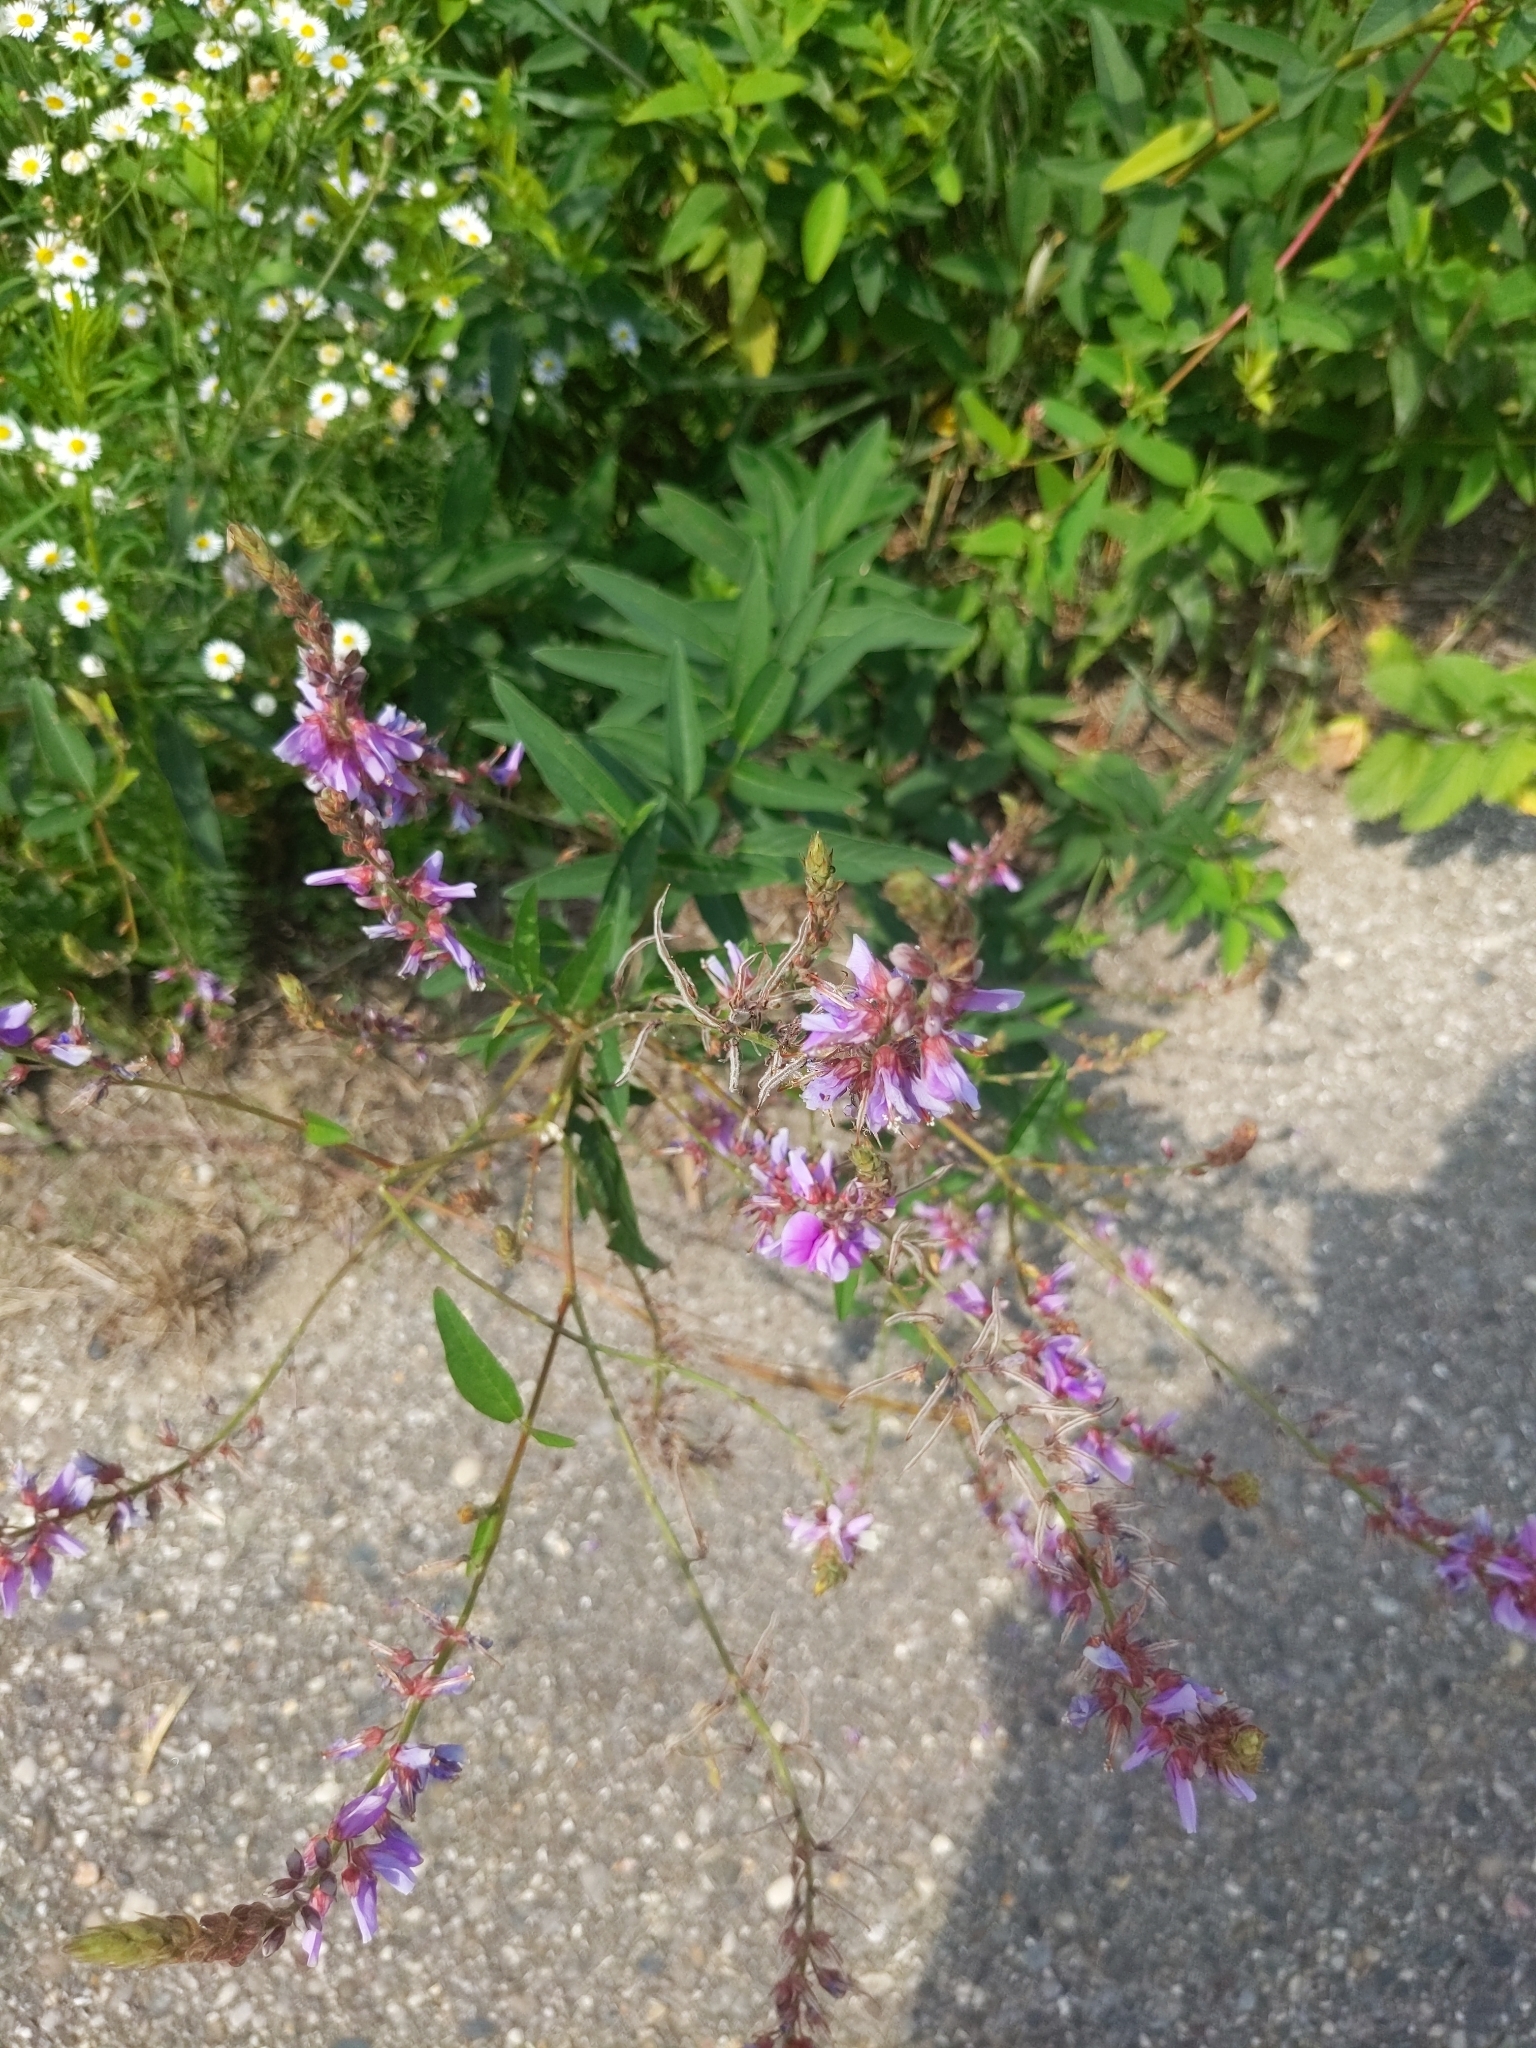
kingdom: Plantae
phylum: Tracheophyta
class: Magnoliopsida
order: Fabales
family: Fabaceae
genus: Desmodium
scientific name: Desmodium canadense
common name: Canada tick-trefoil
